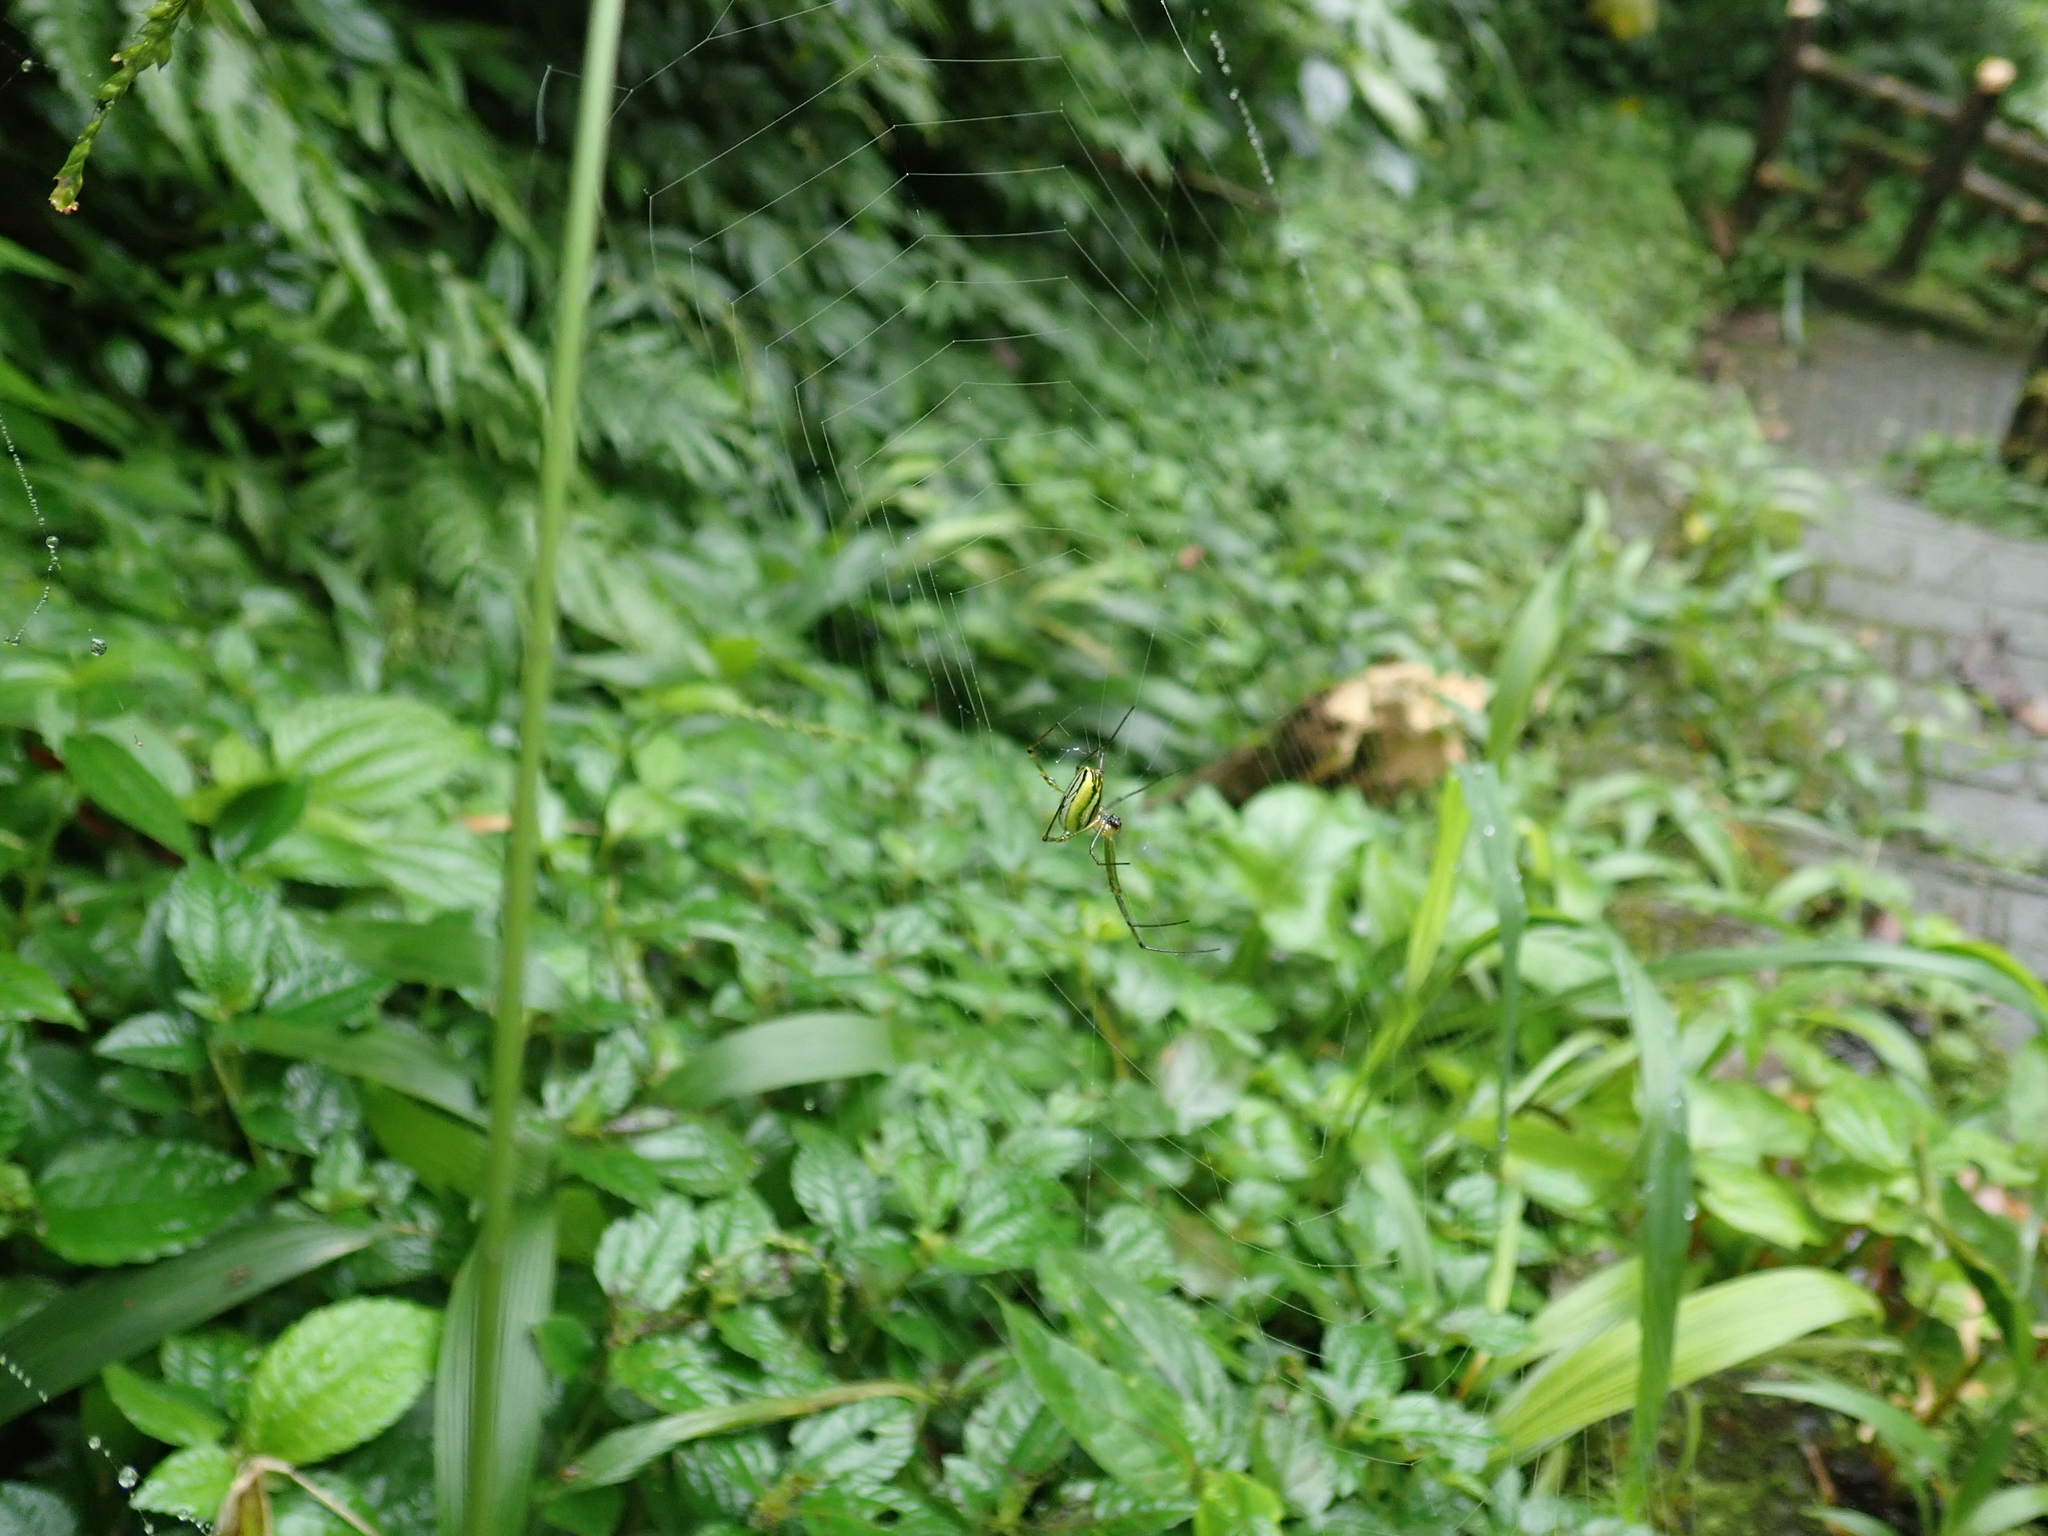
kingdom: Animalia
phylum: Arthropoda
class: Arachnida
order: Araneae
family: Tetragnathidae
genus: Leucauge
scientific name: Leucauge celebesiana
